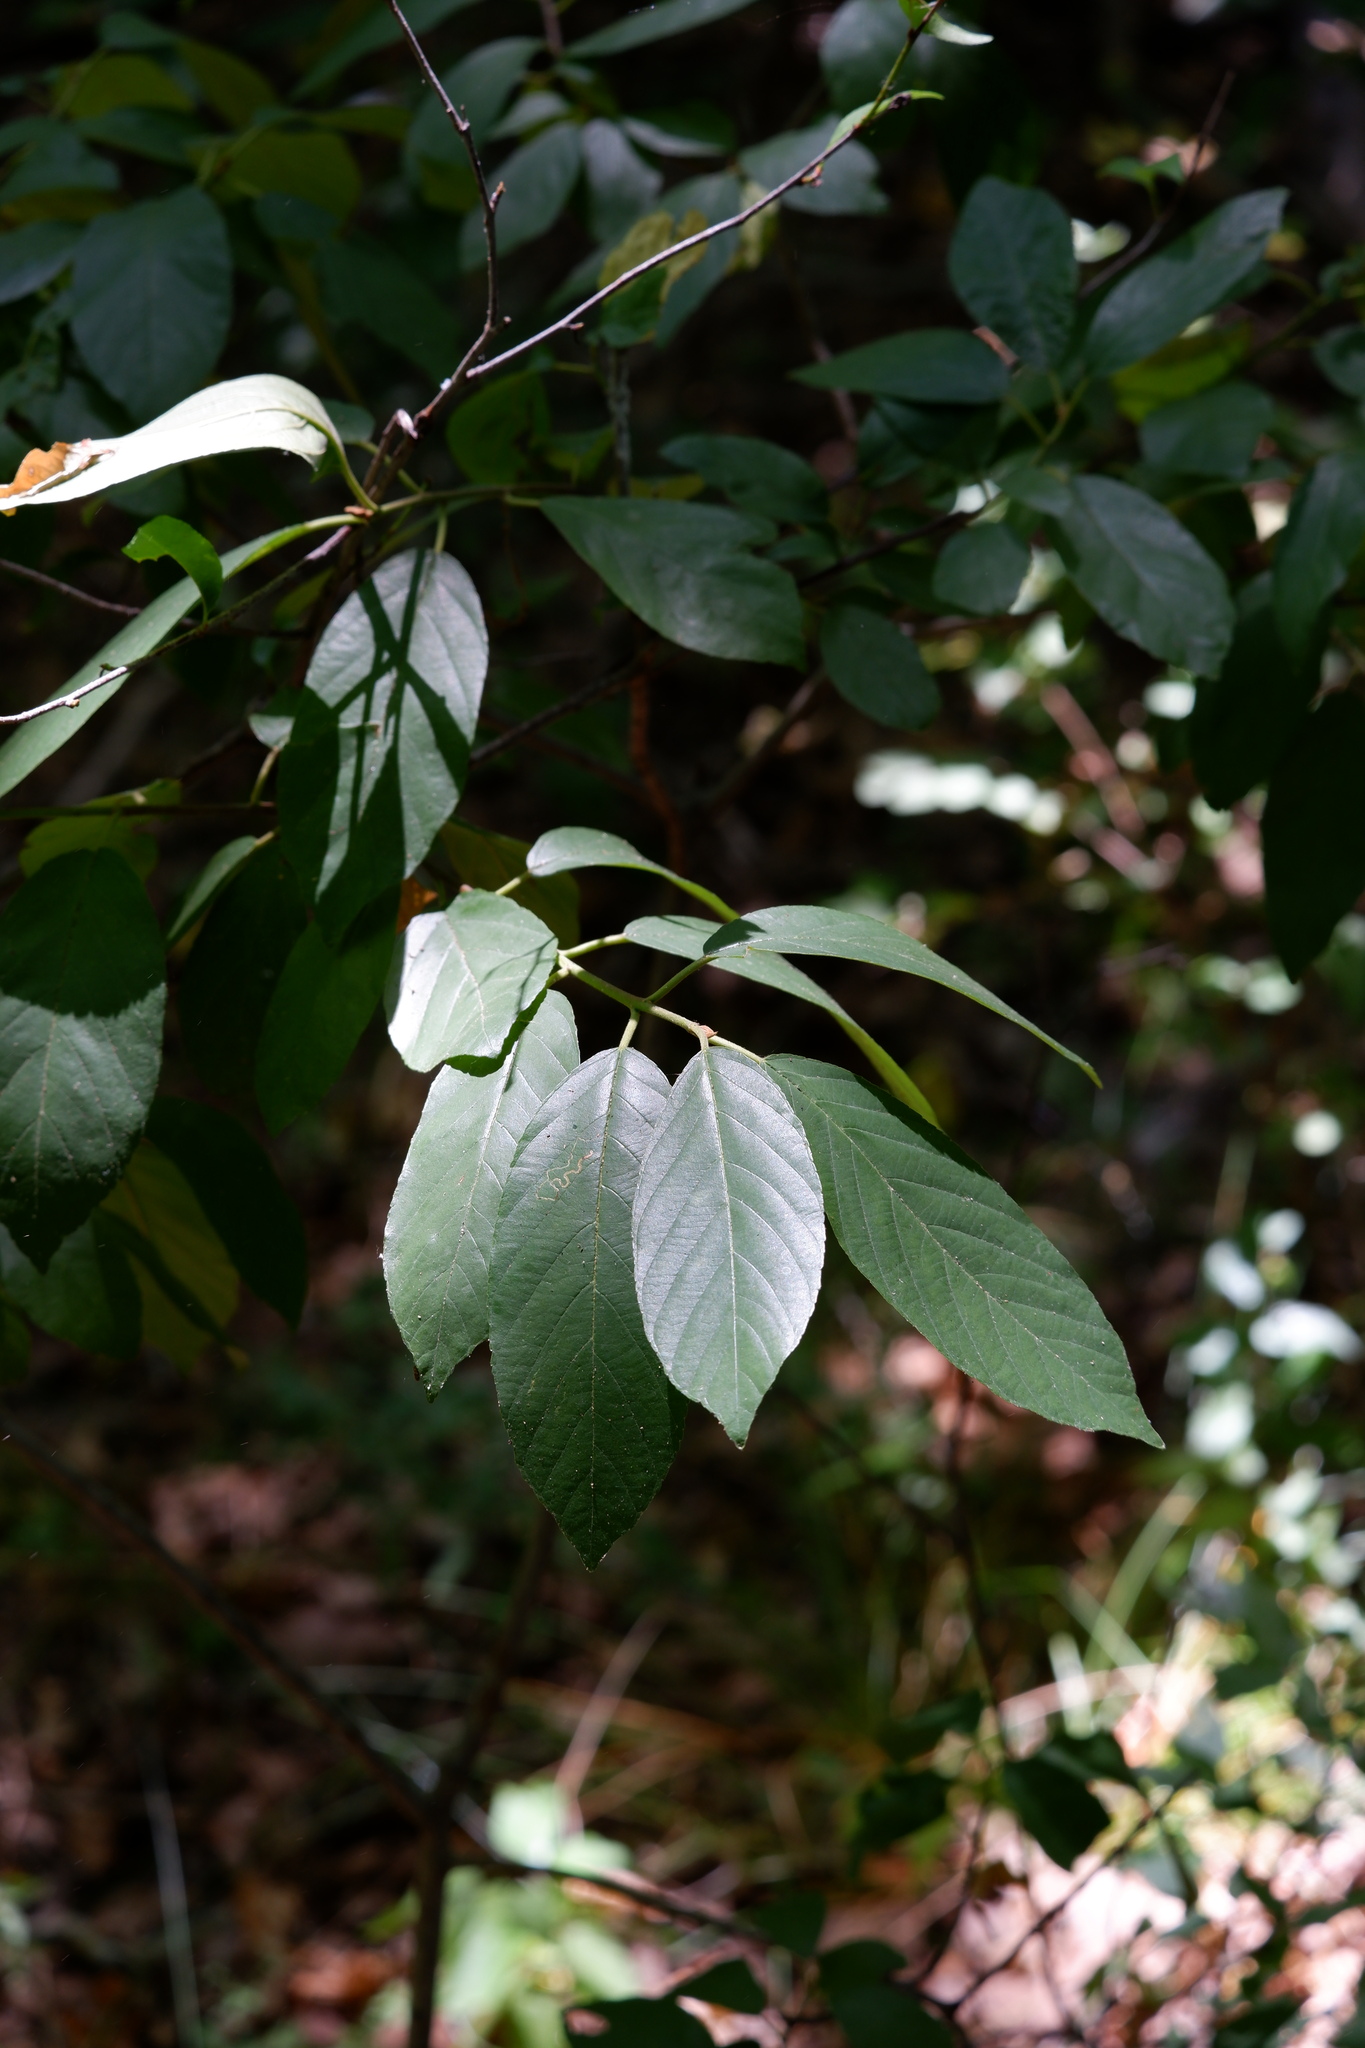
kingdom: Plantae
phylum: Tracheophyta
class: Magnoliopsida
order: Rosales
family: Rhamnaceae
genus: Frangula
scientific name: Frangula caroliniana
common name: Carolina buckthorn
